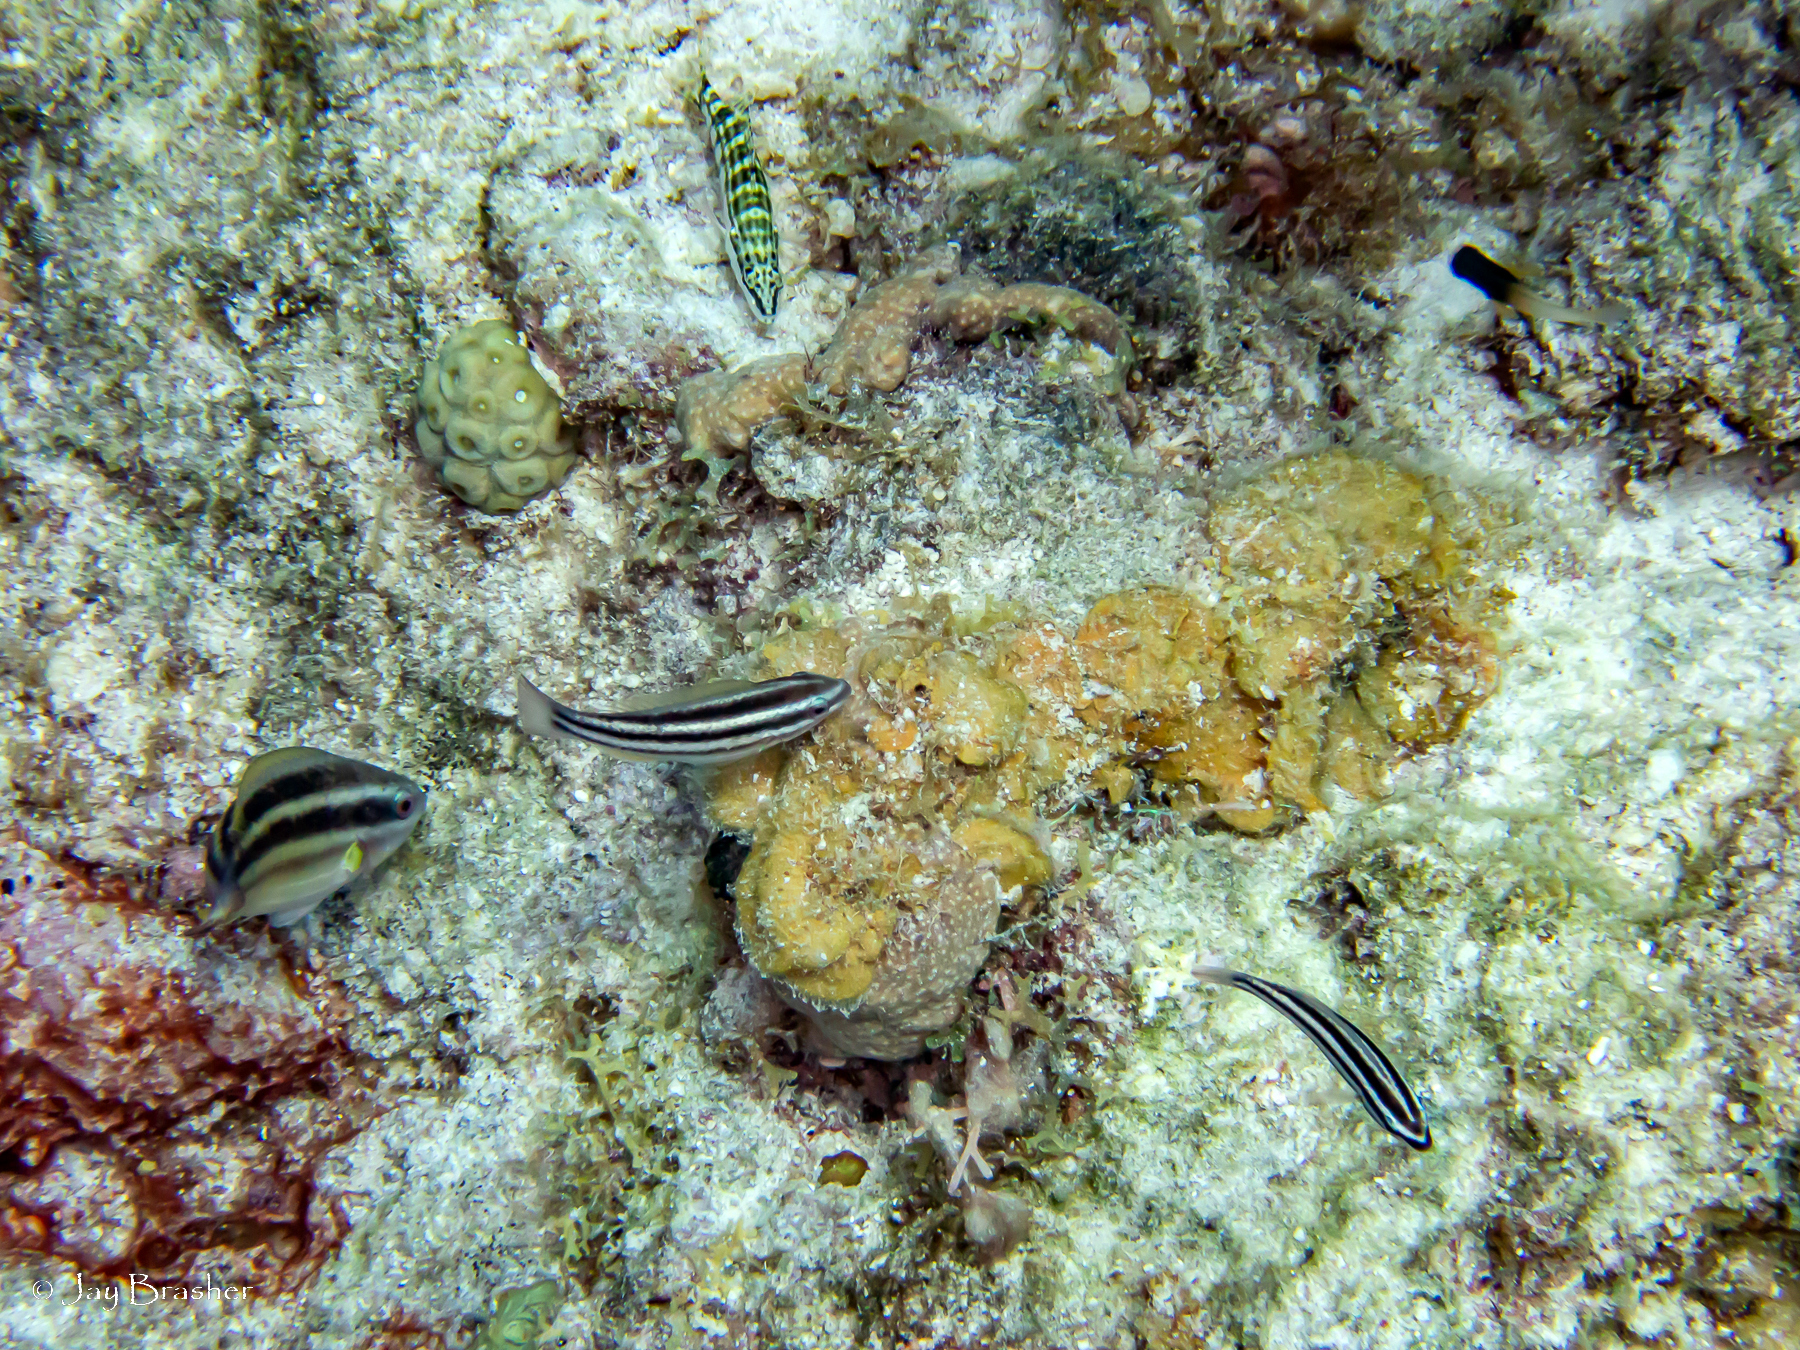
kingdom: Animalia
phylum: Chordata
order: Perciformes
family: Serranidae
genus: Serranus
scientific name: Serranus tigrinus
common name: Harlequin bass
